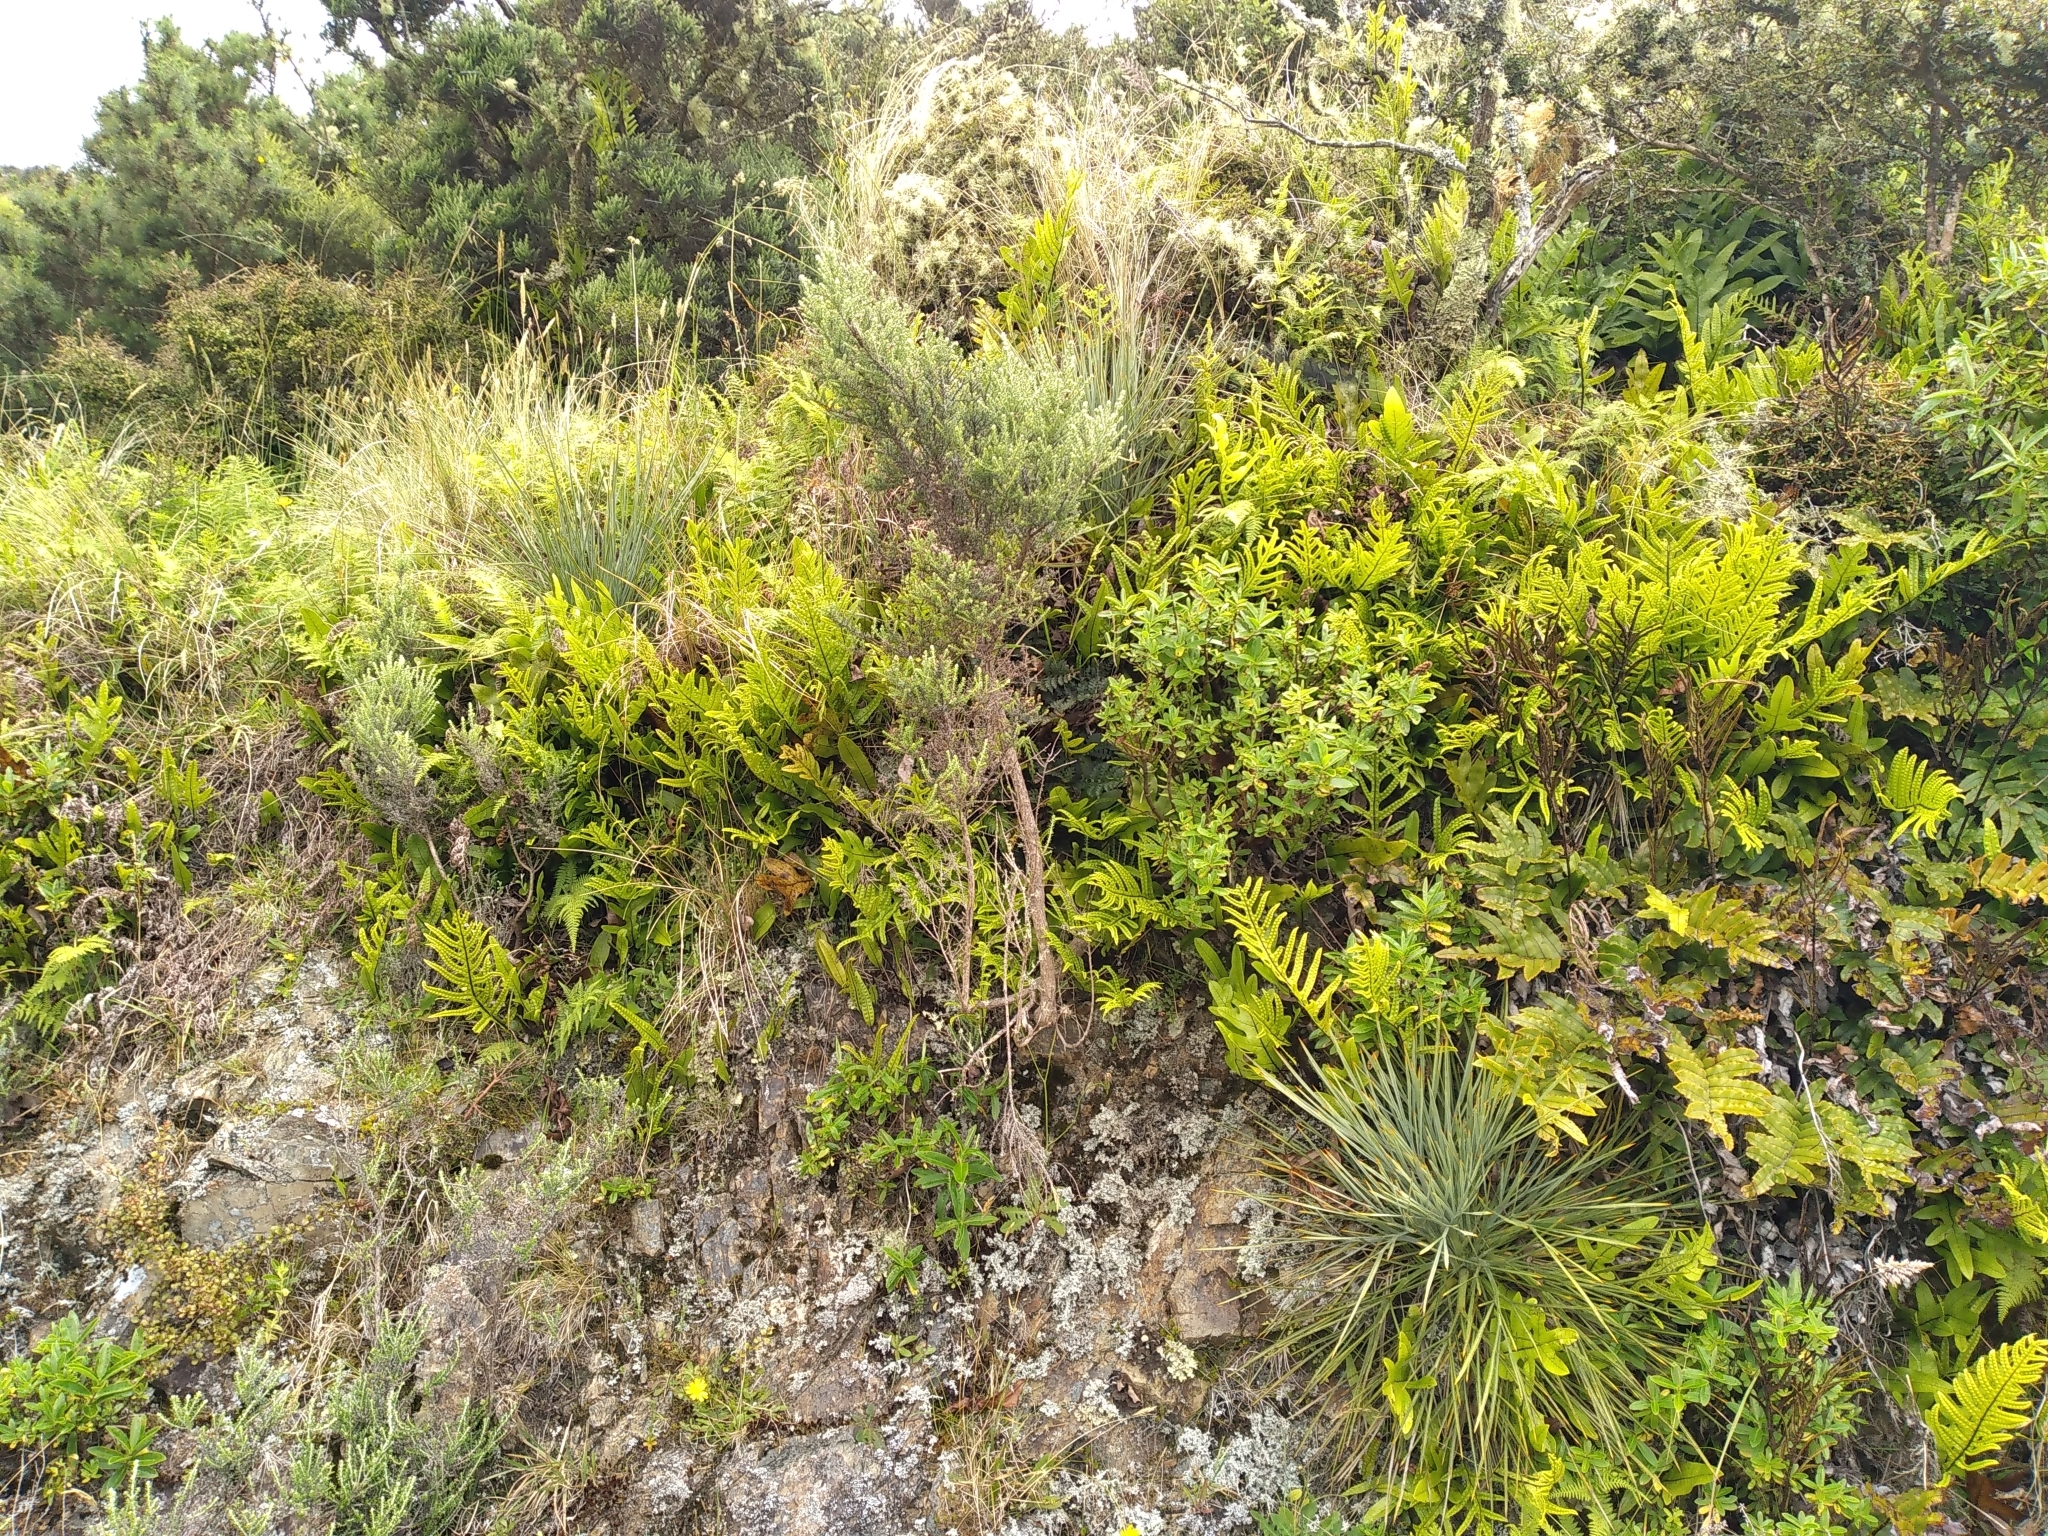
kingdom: Plantae
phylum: Tracheophyta
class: Magnoliopsida
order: Apiales
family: Apiaceae
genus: Aciphylla
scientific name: Aciphylla squarrosa
